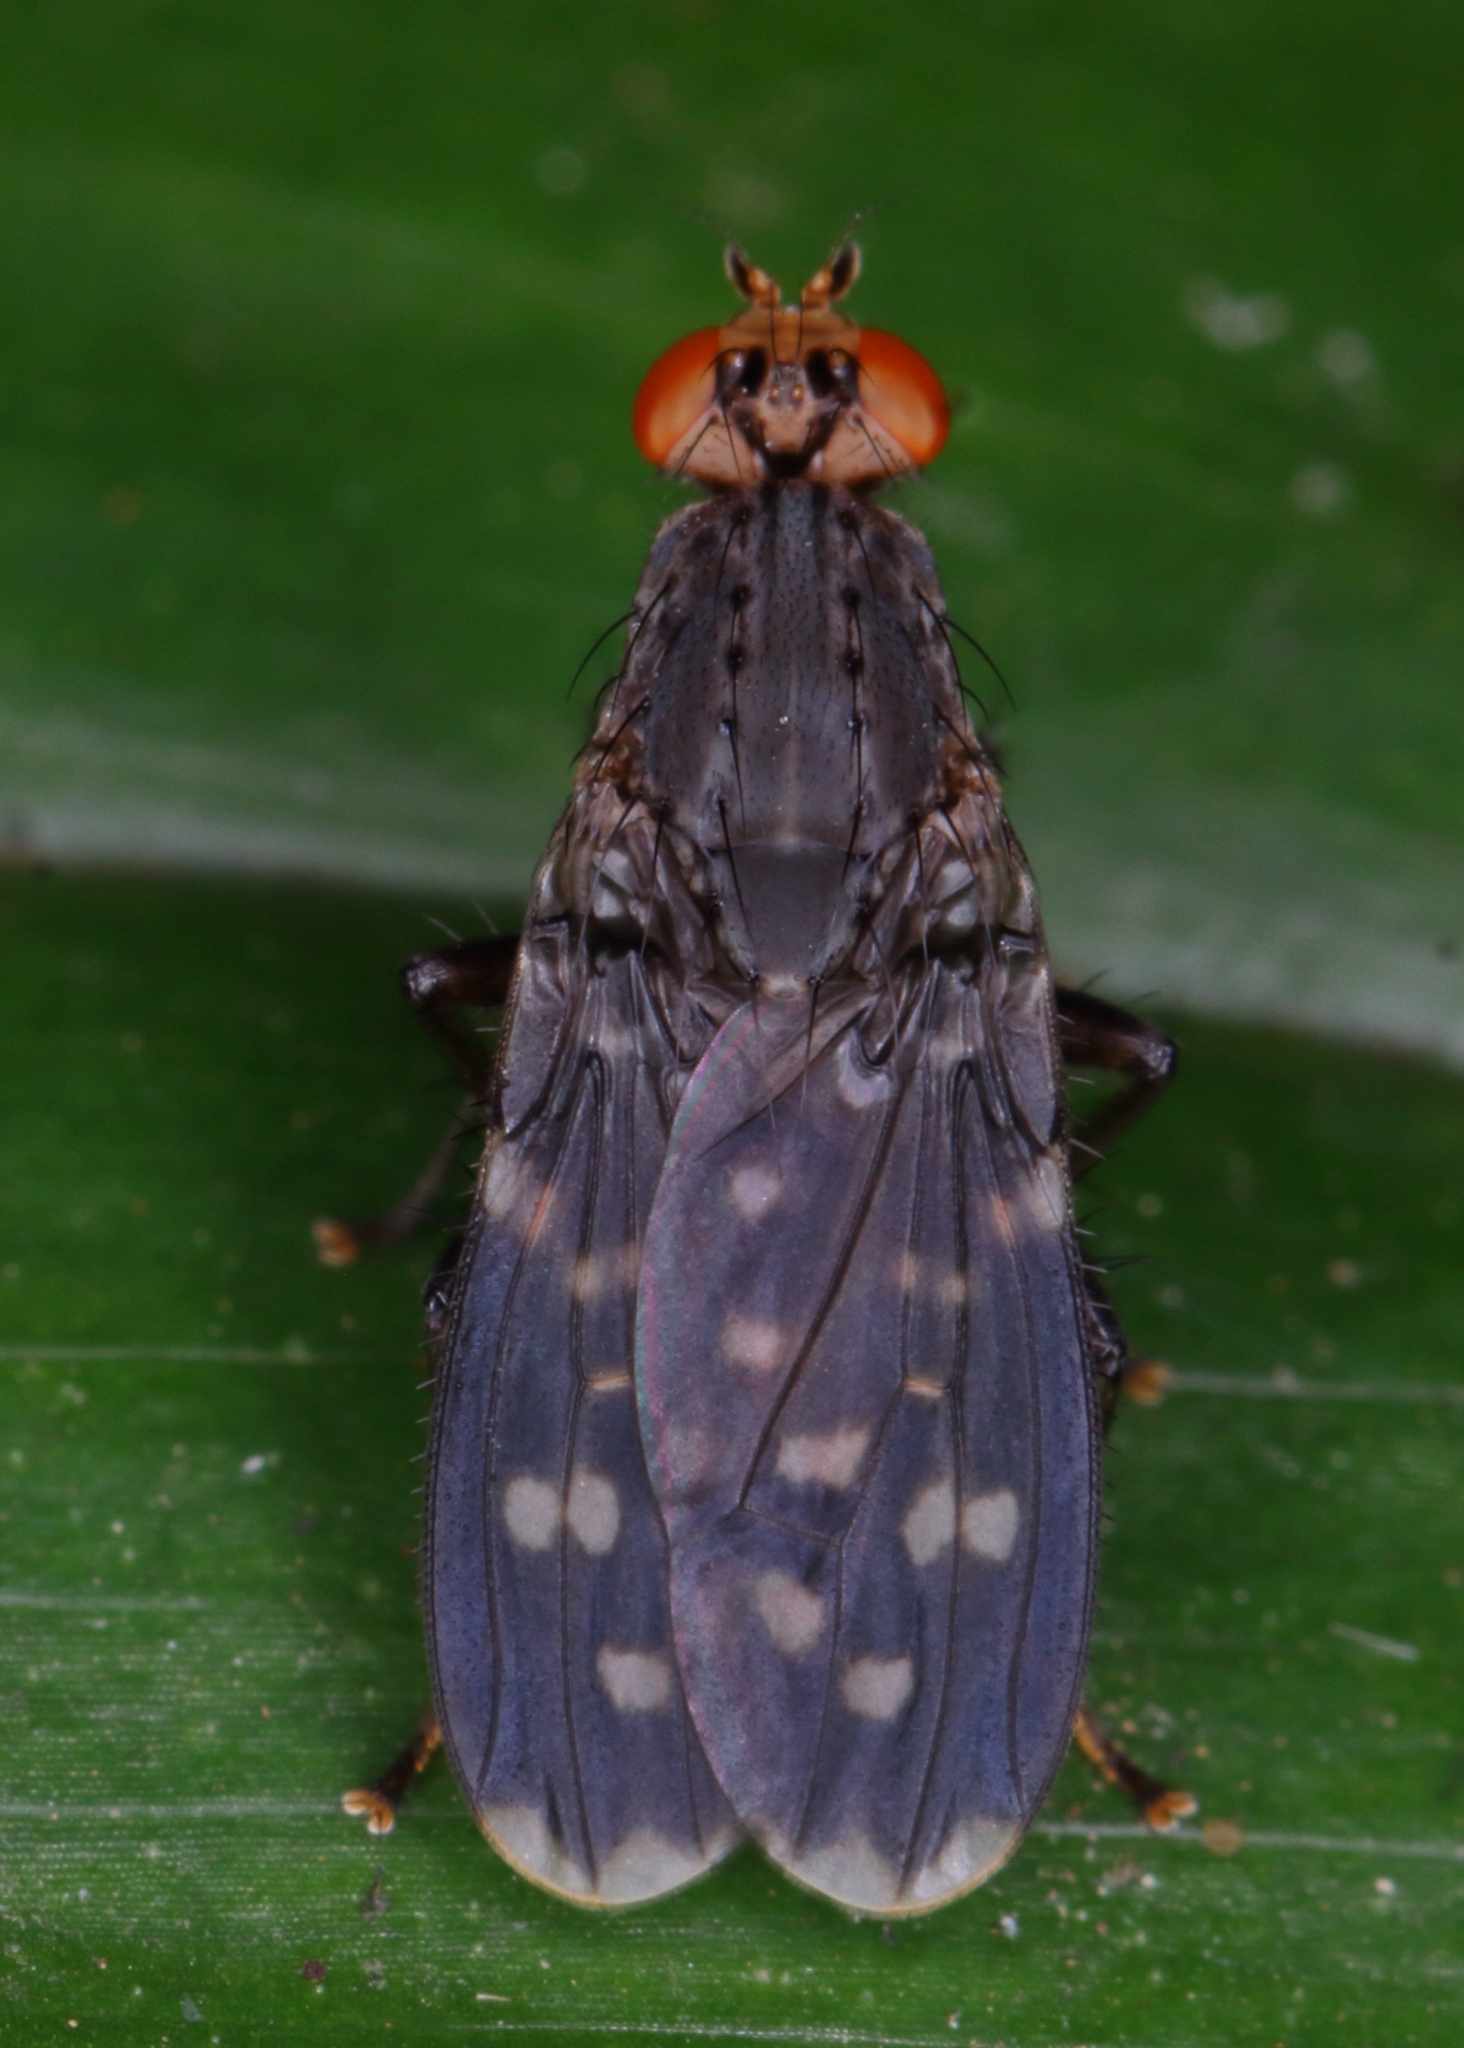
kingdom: Animalia
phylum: Arthropoda
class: Insecta
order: Diptera
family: Heleomyzidae
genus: Suillia
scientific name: Suillia picta
